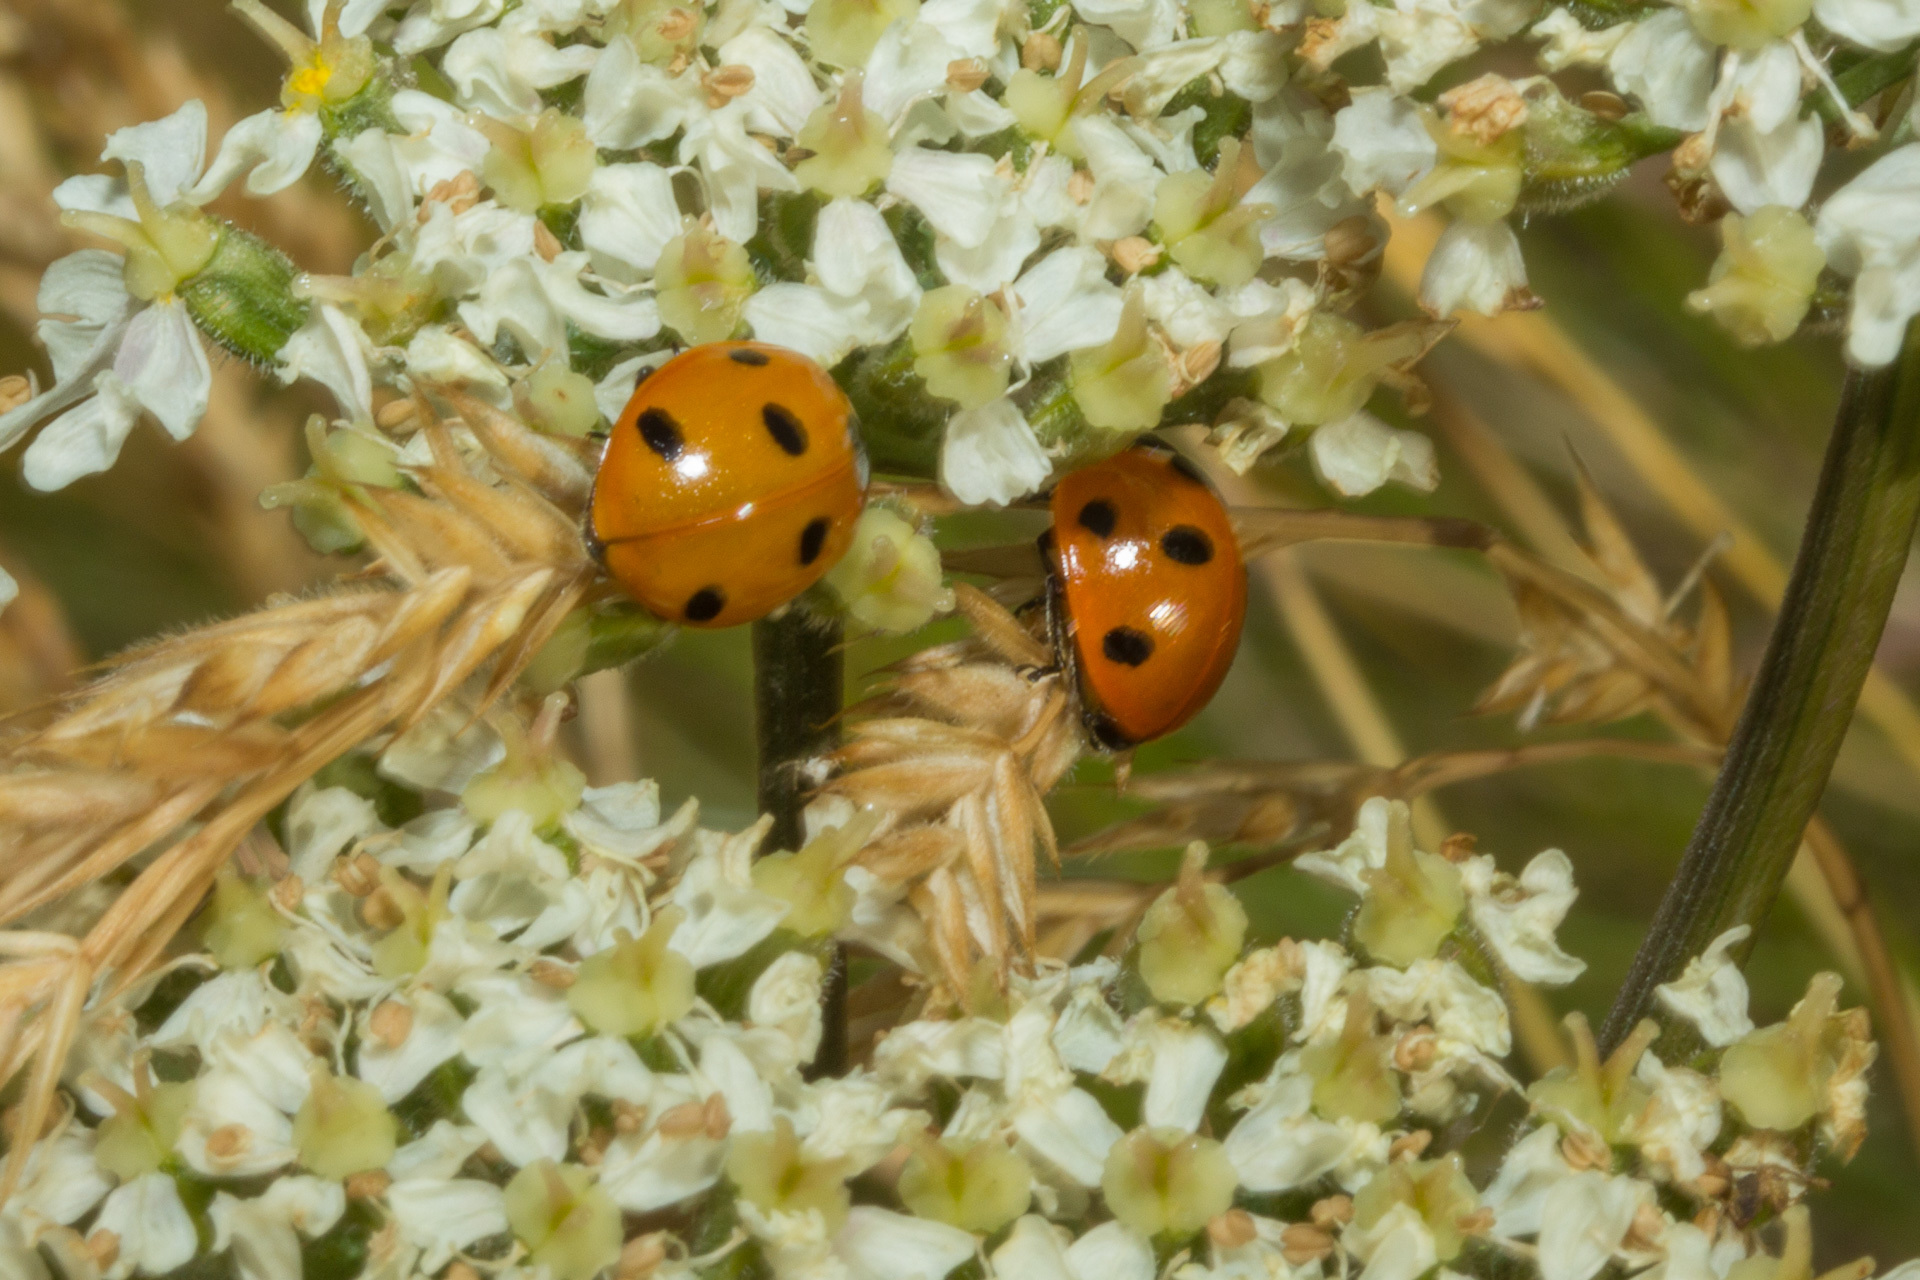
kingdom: Animalia
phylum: Arthropoda
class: Insecta
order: Coleoptera
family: Coccinellidae
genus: Coccinella
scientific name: Coccinella septempunctata
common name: Sevenspotted lady beetle
